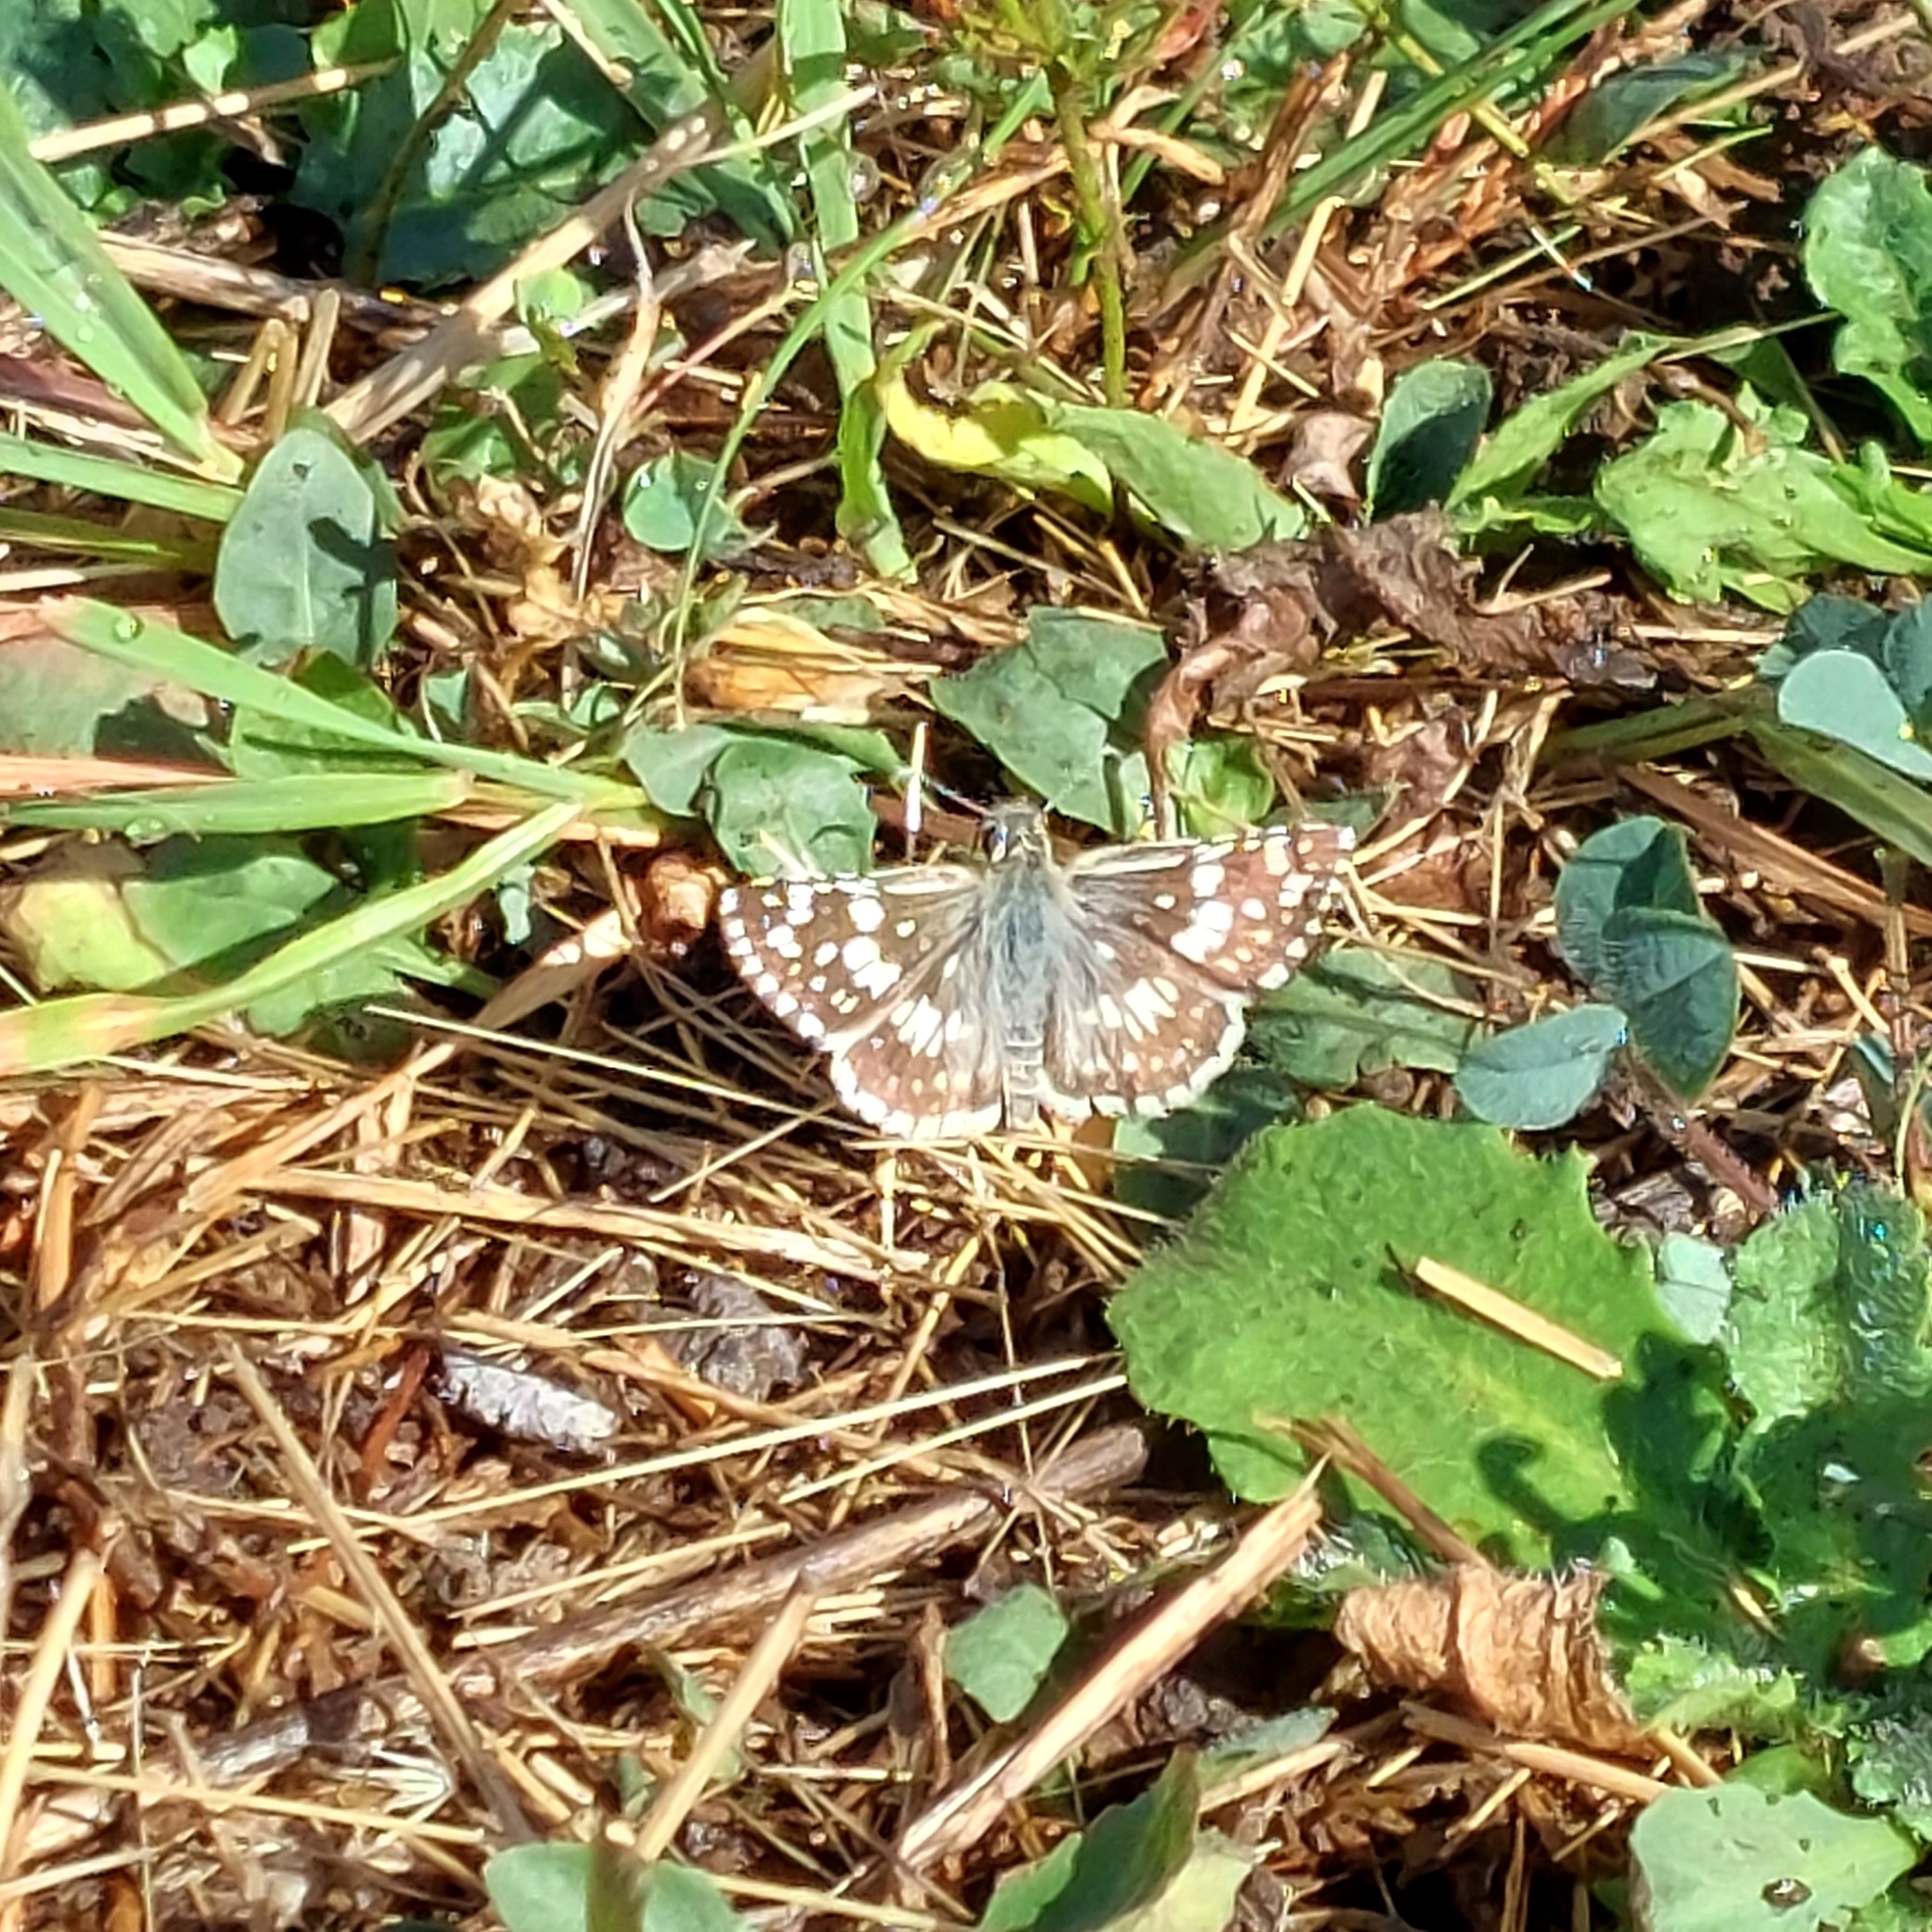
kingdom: Animalia
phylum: Arthropoda
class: Insecta
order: Lepidoptera
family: Hesperiidae
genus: Burnsius
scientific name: Burnsius orcynoides
